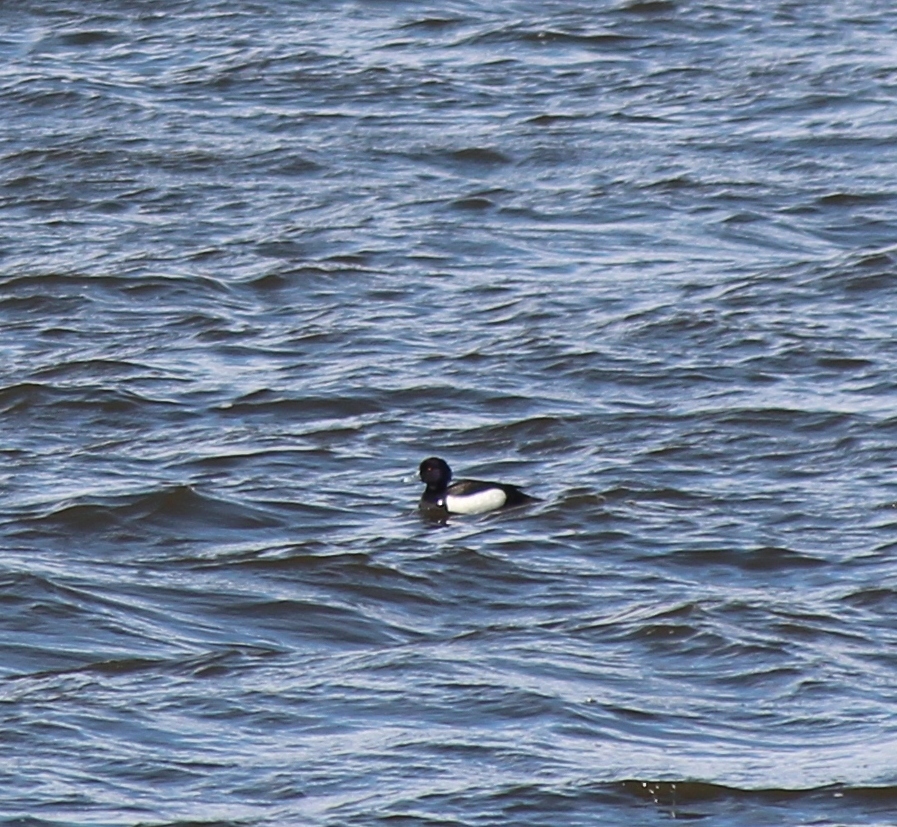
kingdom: Animalia
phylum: Chordata
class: Aves
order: Anseriformes
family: Anatidae
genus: Aythya
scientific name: Aythya fuligula
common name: Tufted duck
